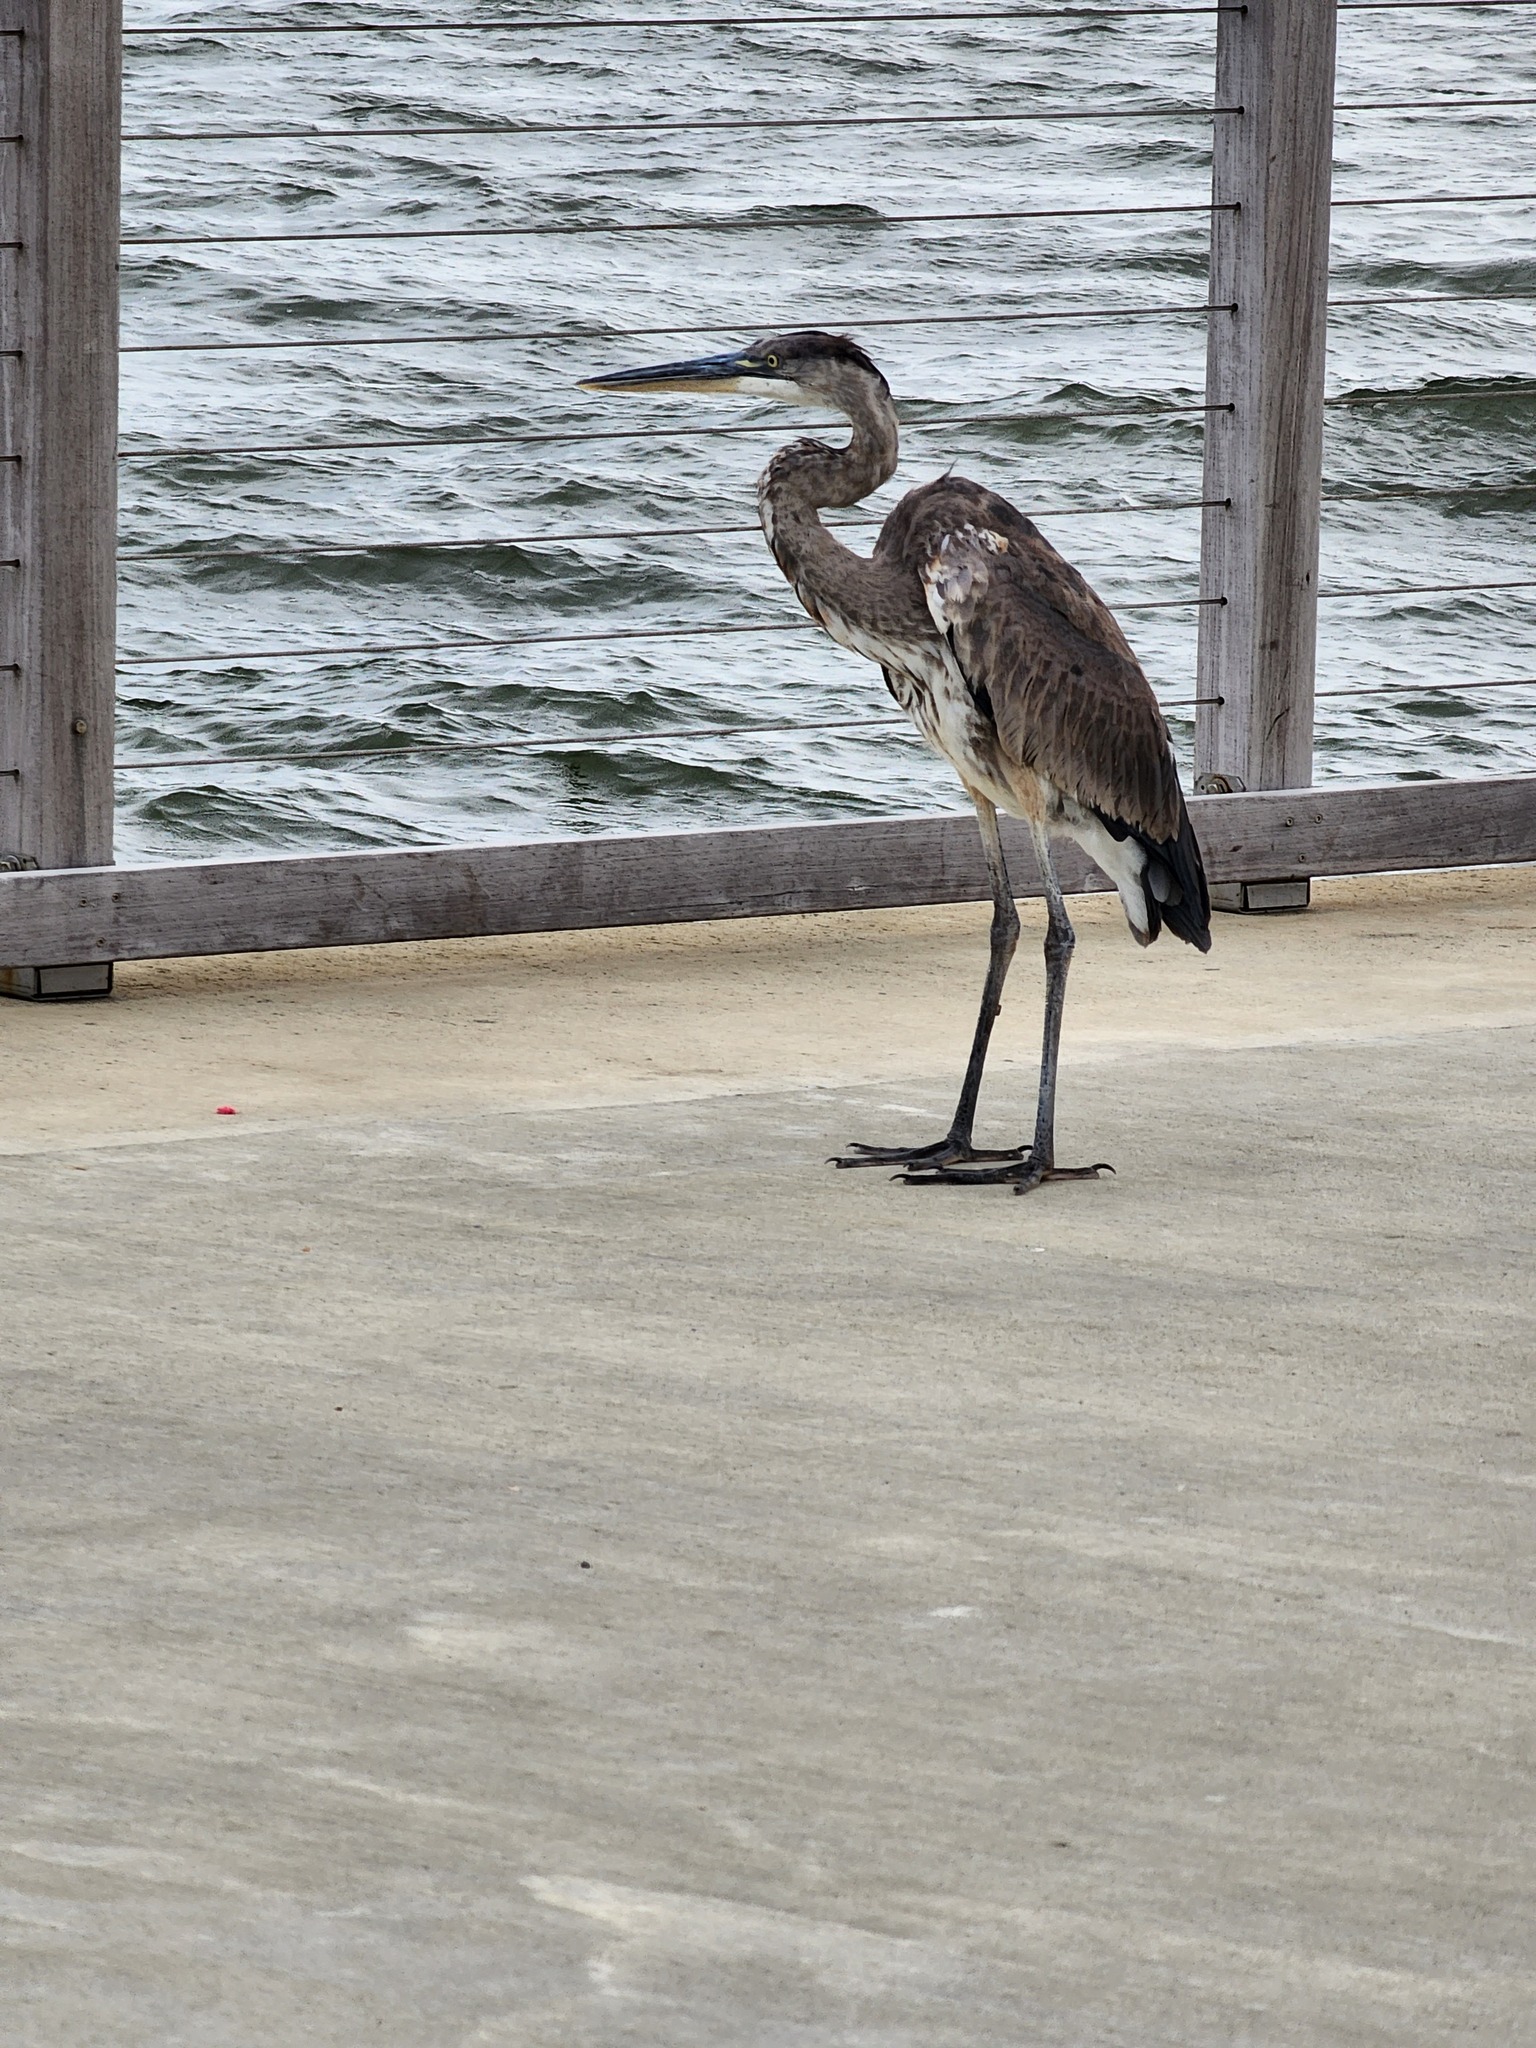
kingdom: Animalia
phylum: Chordata
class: Aves
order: Pelecaniformes
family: Ardeidae
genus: Ardea
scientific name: Ardea herodias
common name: Great blue heron
